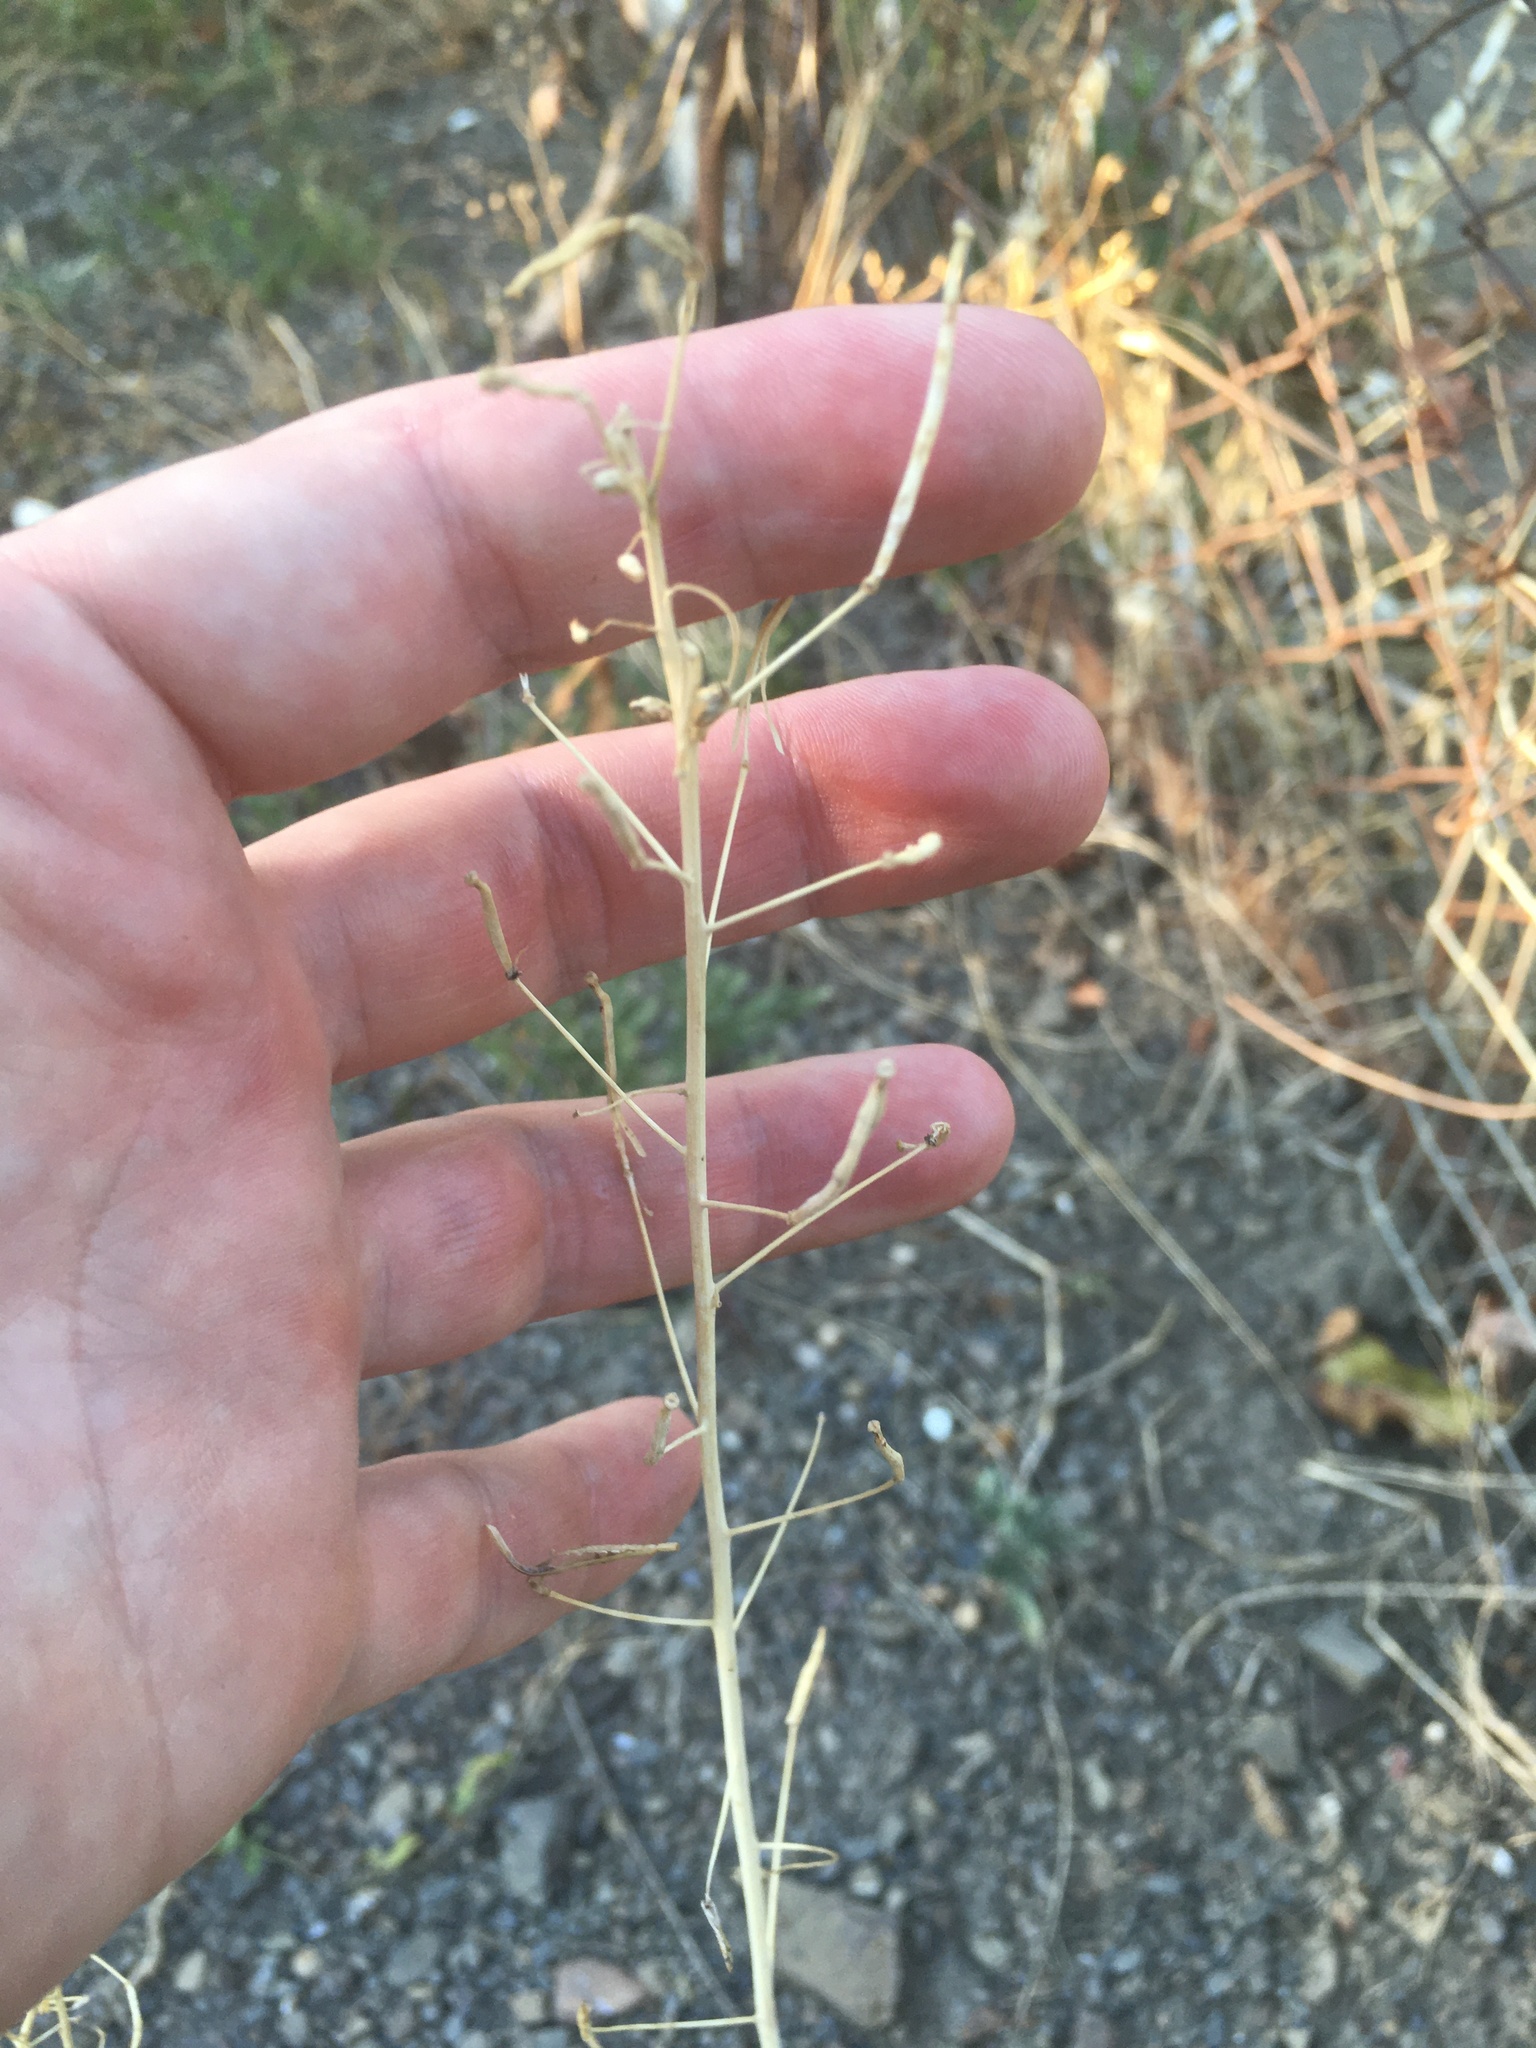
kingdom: Plantae
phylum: Tracheophyta
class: Magnoliopsida
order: Brassicales
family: Brassicaceae
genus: Descurainia
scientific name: Descurainia sophia
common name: Flixweed
